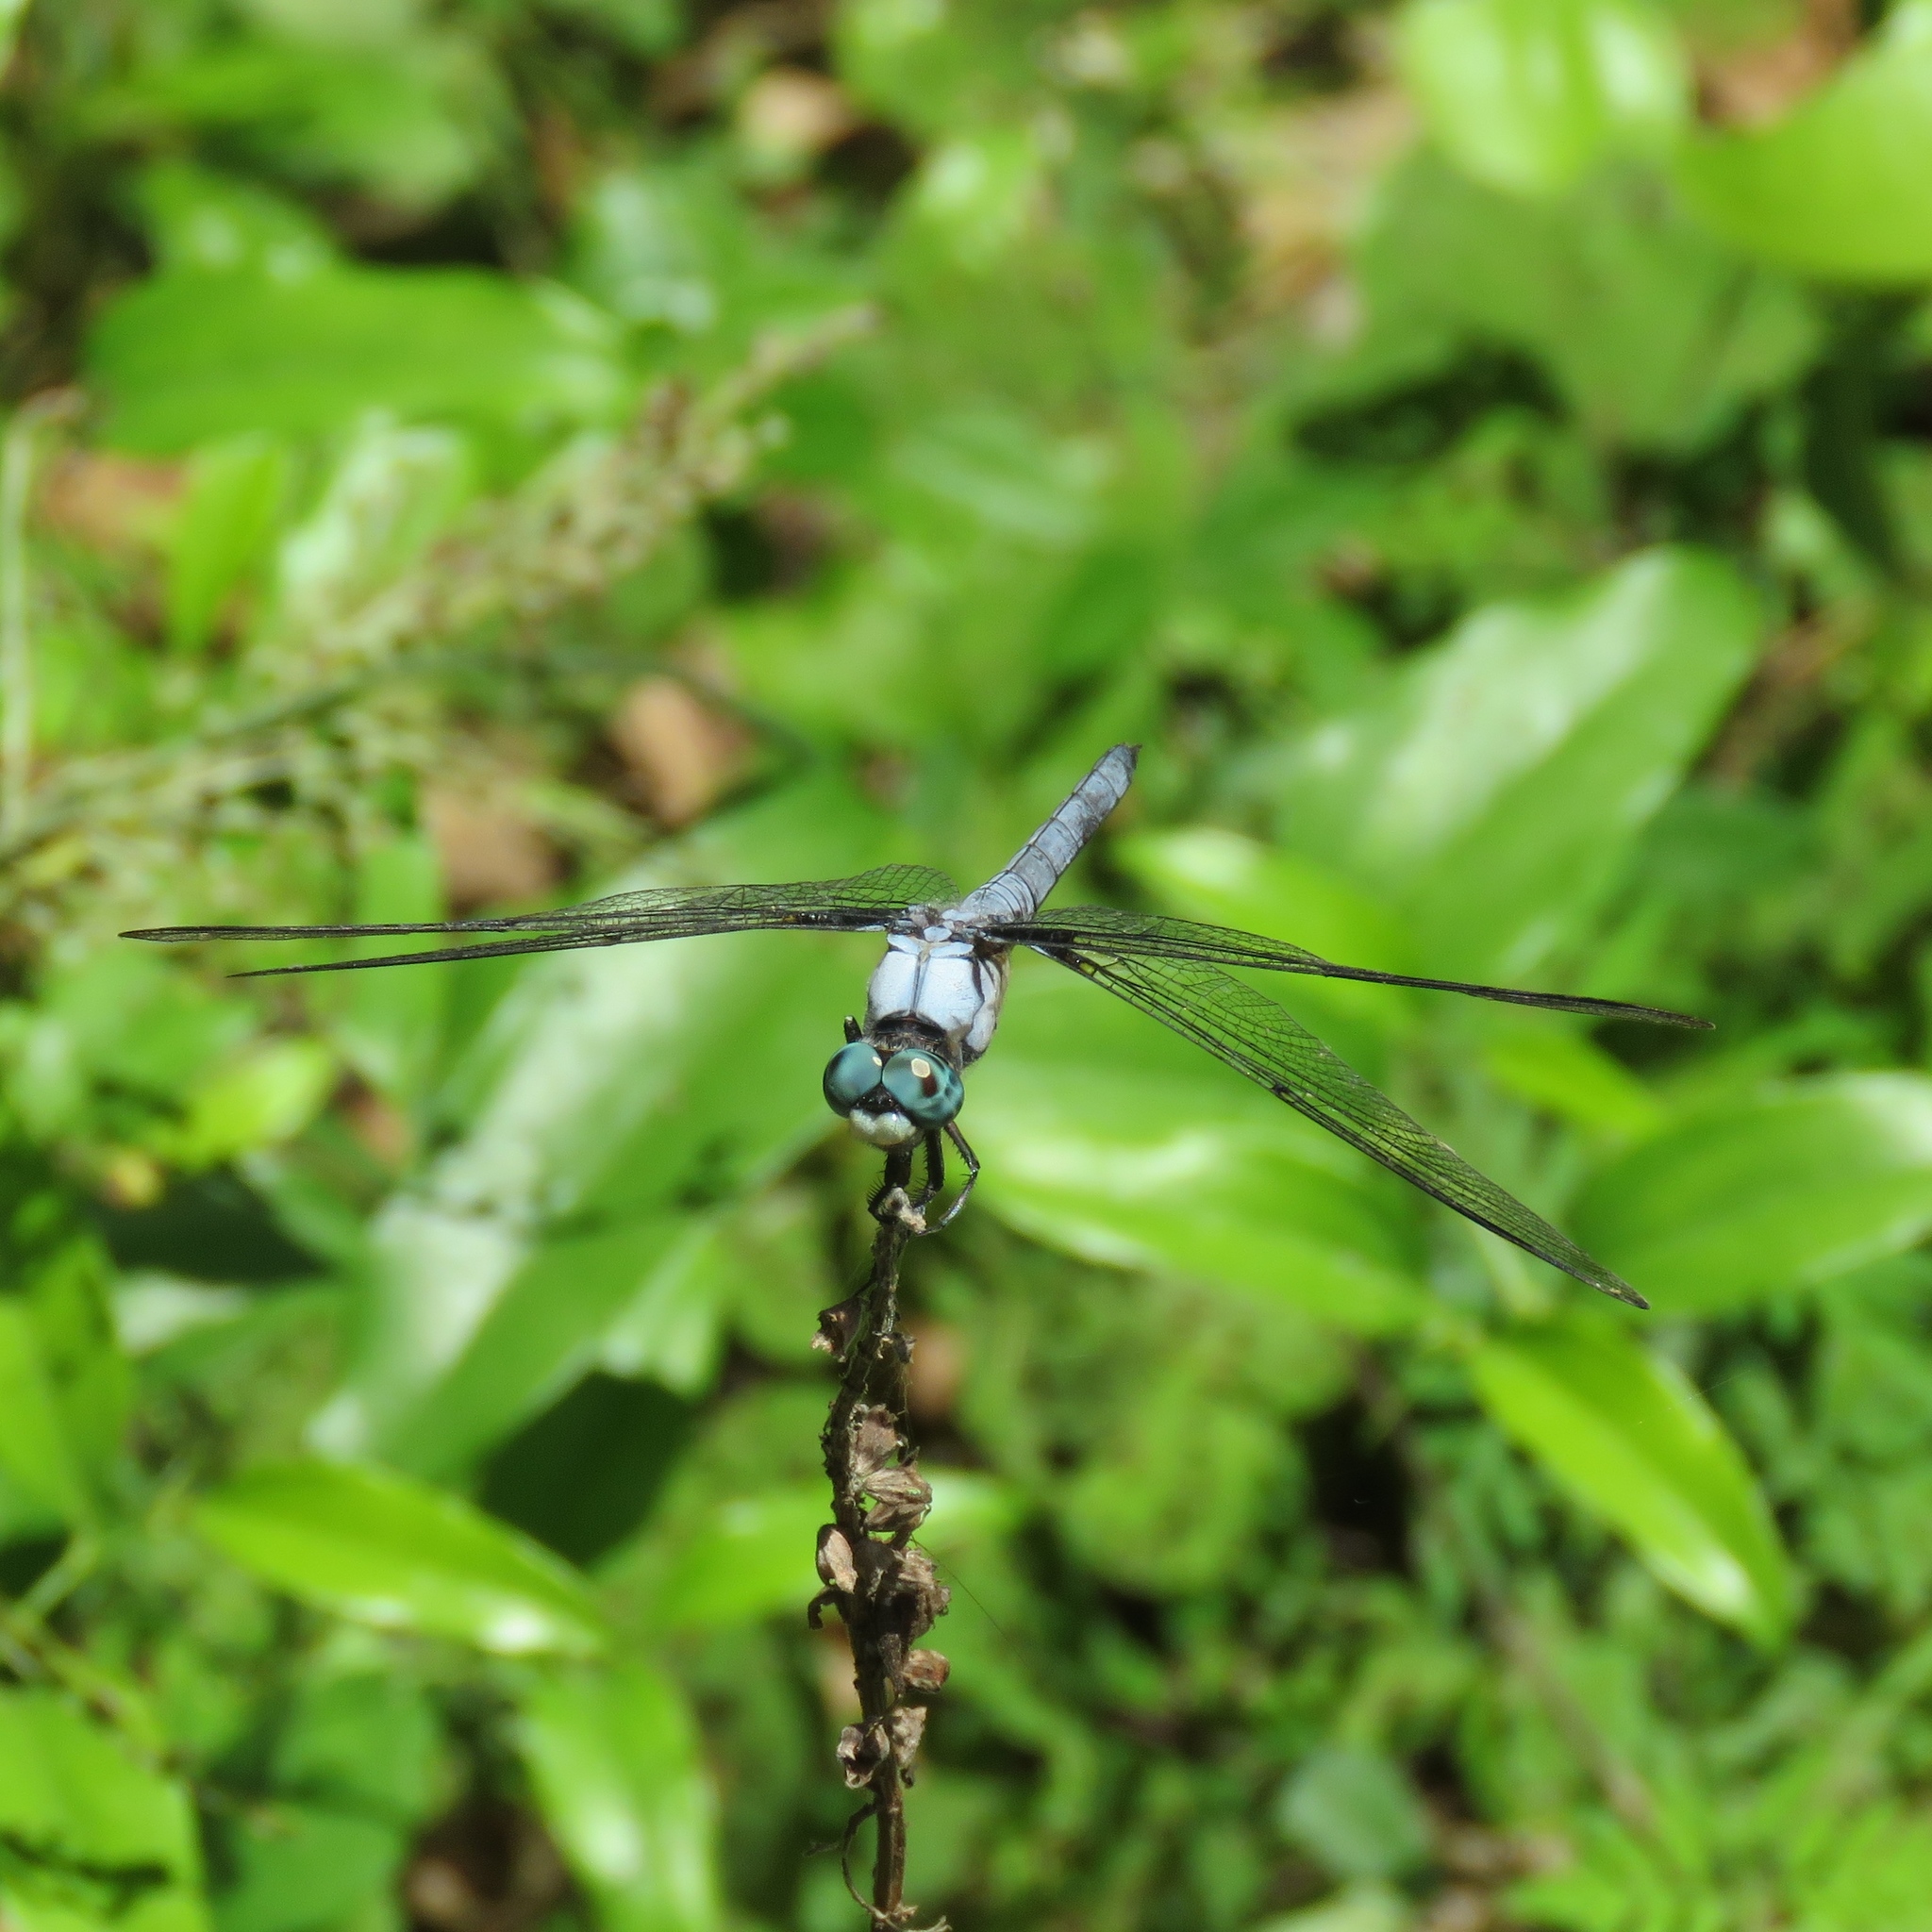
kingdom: Animalia
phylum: Arthropoda
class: Insecta
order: Odonata
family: Libellulidae
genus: Libellula
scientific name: Libellula vibrans
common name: Great blue skimmer
